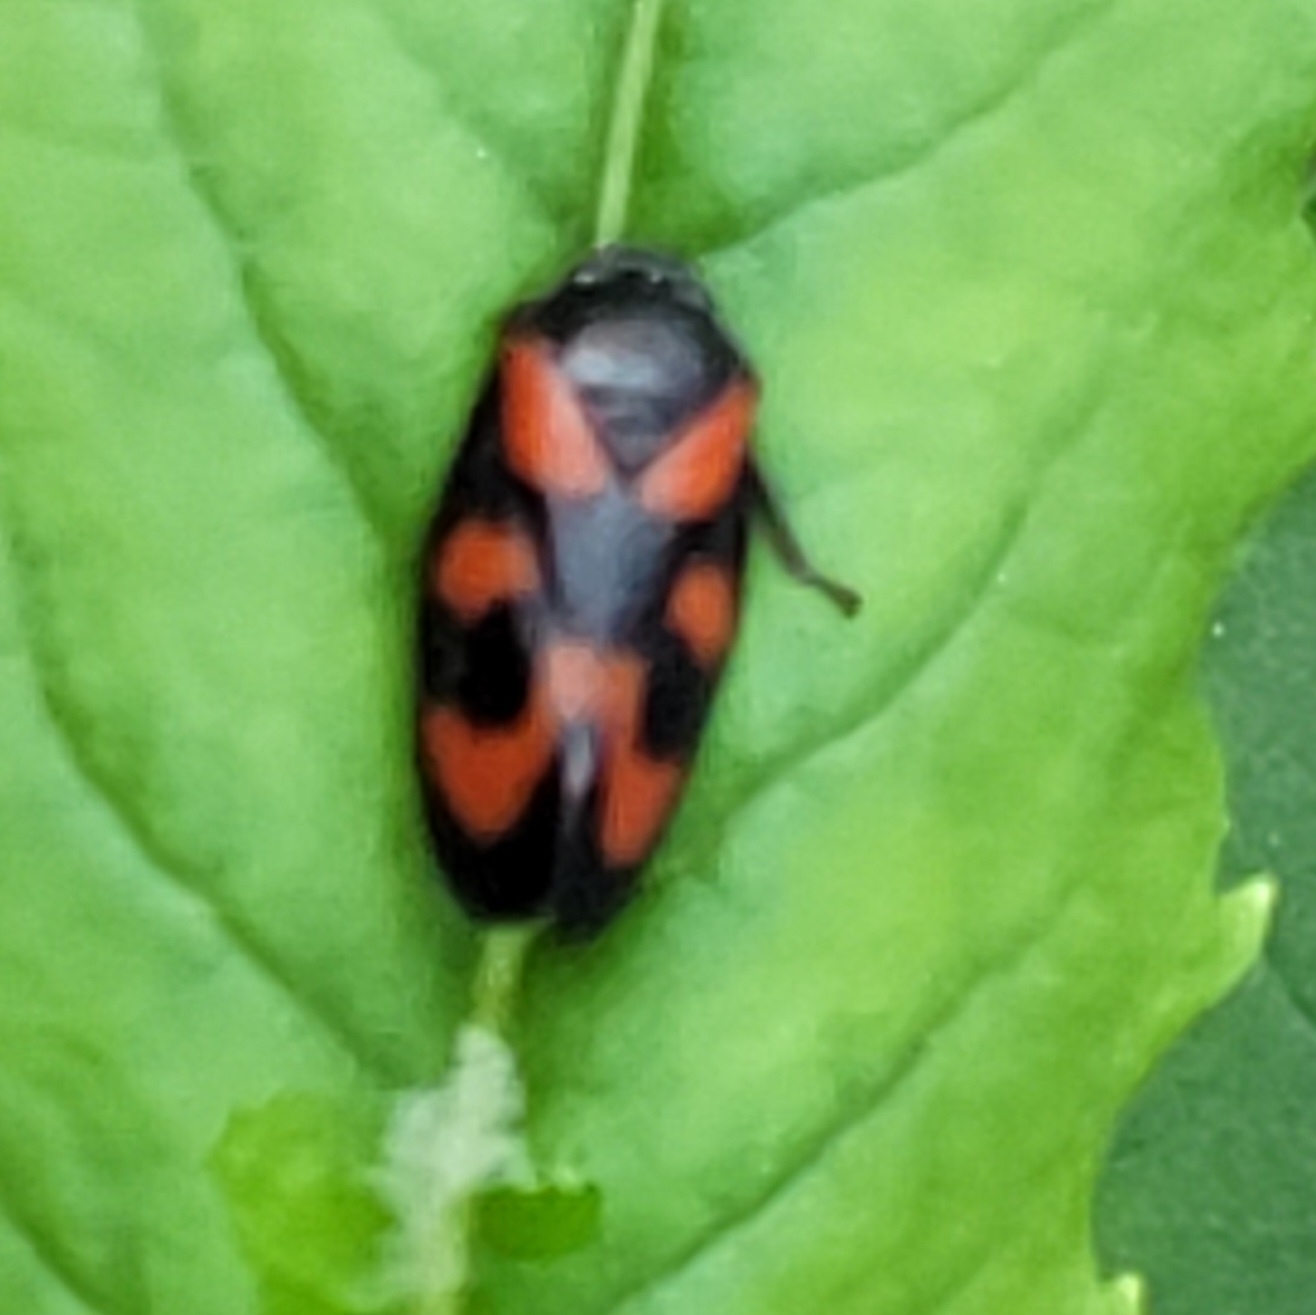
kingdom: Animalia
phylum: Arthropoda
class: Insecta
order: Hemiptera
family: Cercopidae
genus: Cercopis
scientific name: Cercopis vulnerata
